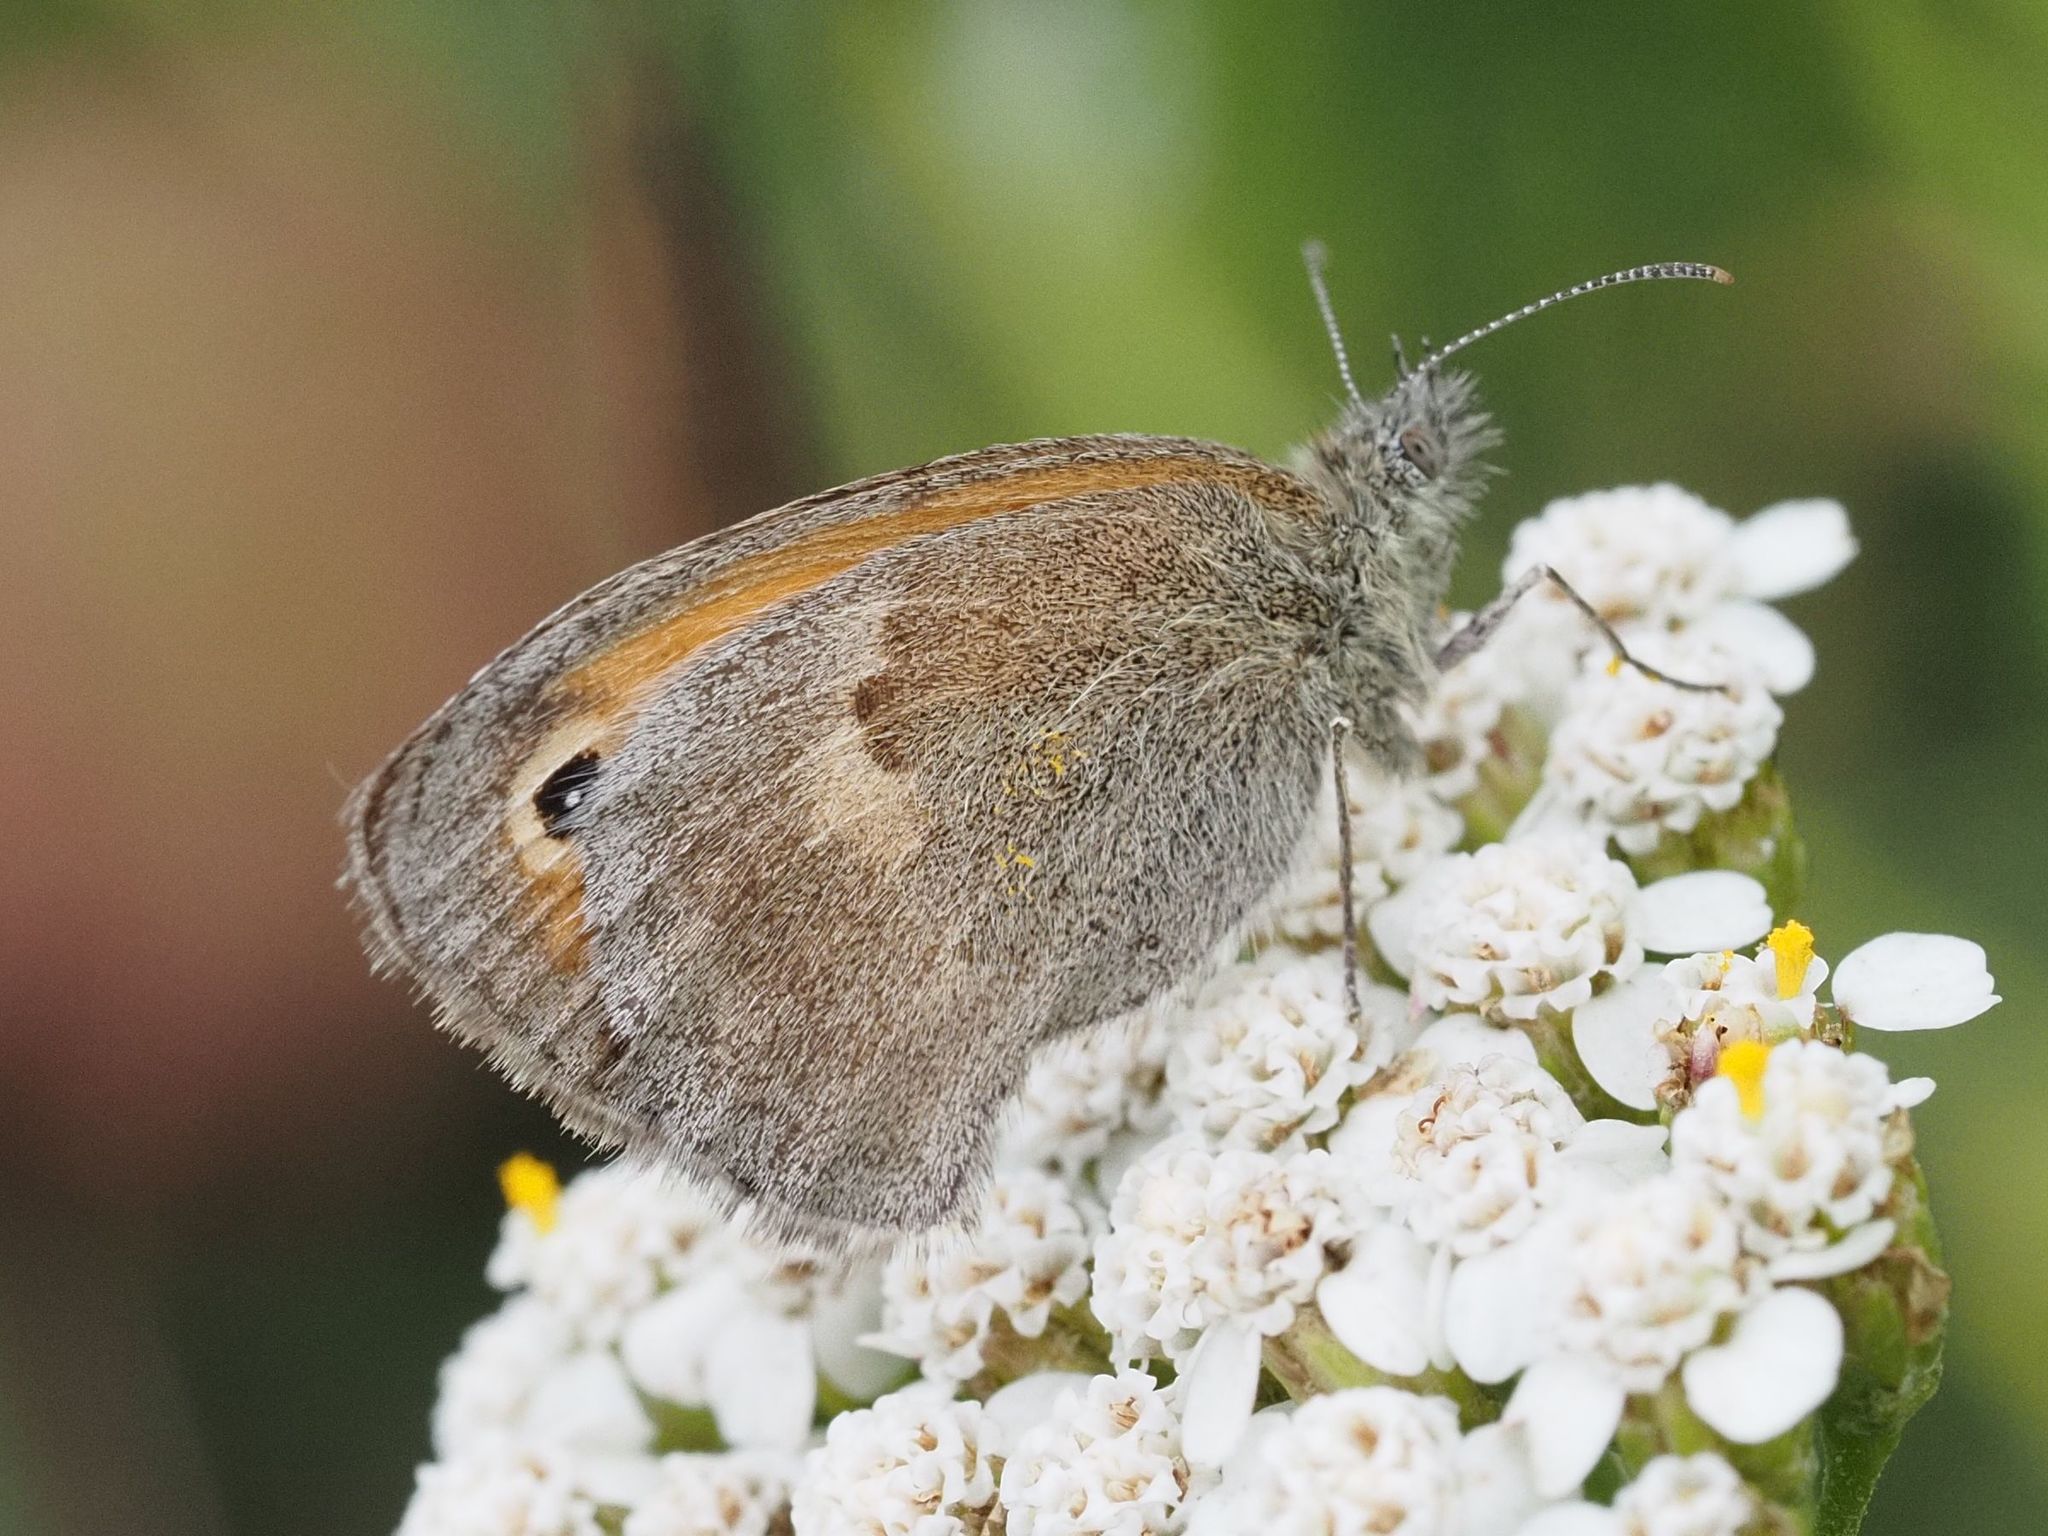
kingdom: Animalia
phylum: Arthropoda
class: Insecta
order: Lepidoptera
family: Nymphalidae
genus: Coenonympha
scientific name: Coenonympha pamphilus
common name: Small heath
